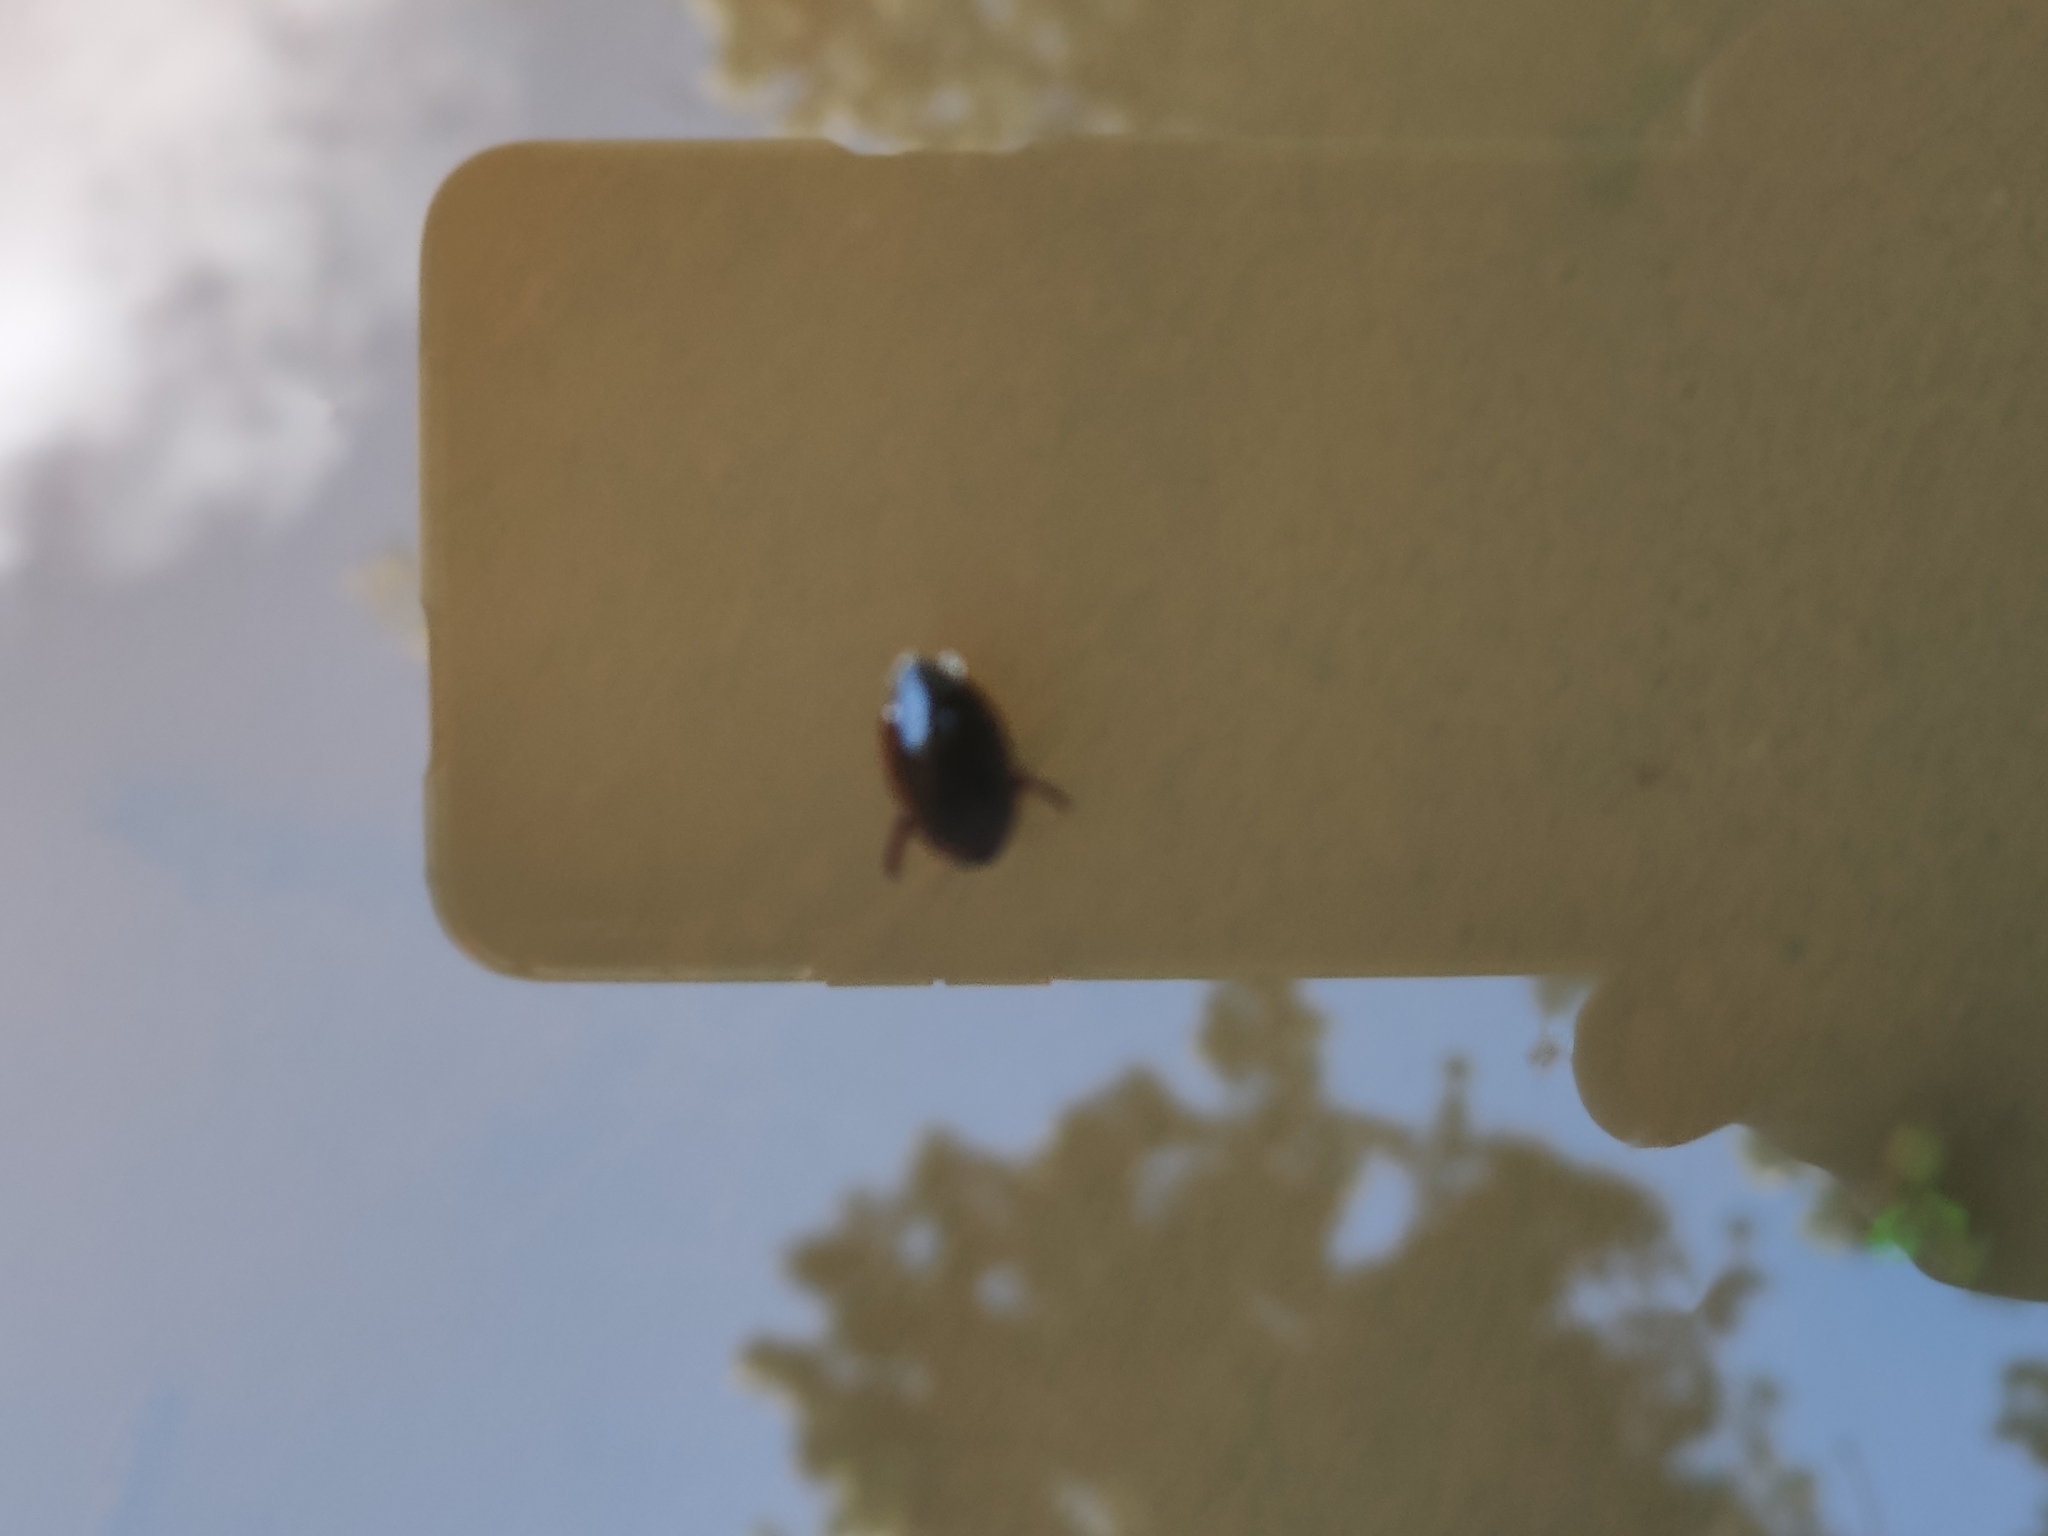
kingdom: Animalia
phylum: Arthropoda
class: Insecta
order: Coleoptera
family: Dytiscidae
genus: Rhantus
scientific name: Rhantus suturalis
